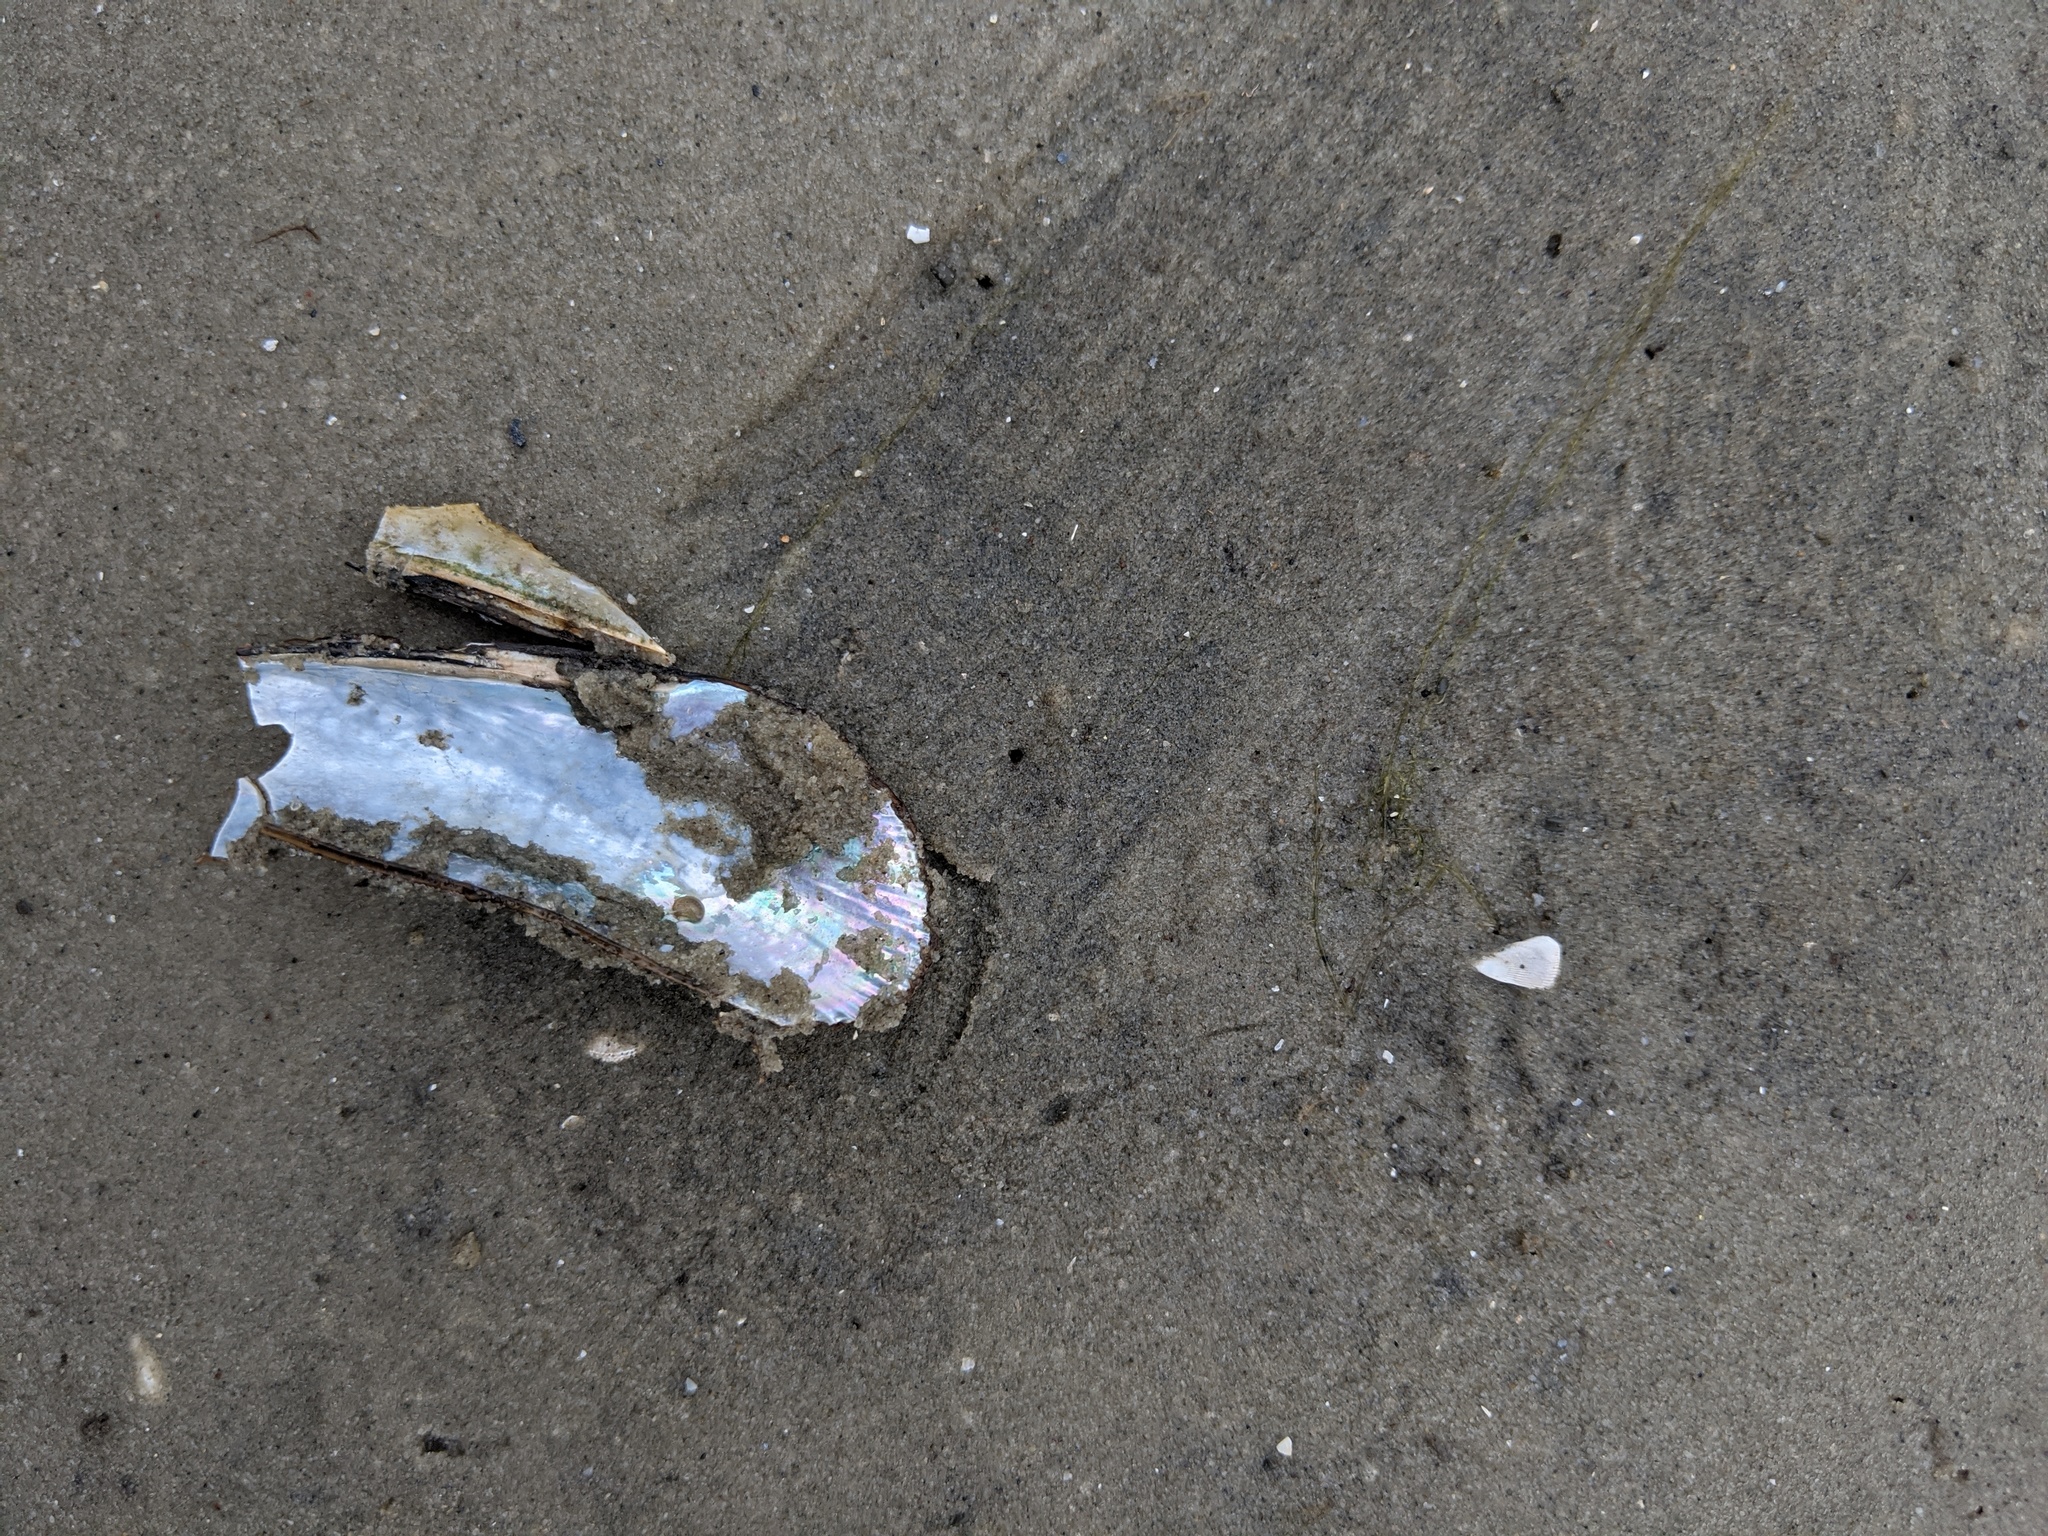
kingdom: Animalia
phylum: Mollusca
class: Bivalvia
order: Mytilida
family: Mytilidae
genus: Geukensia
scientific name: Geukensia demissa
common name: Ribbed mussel
